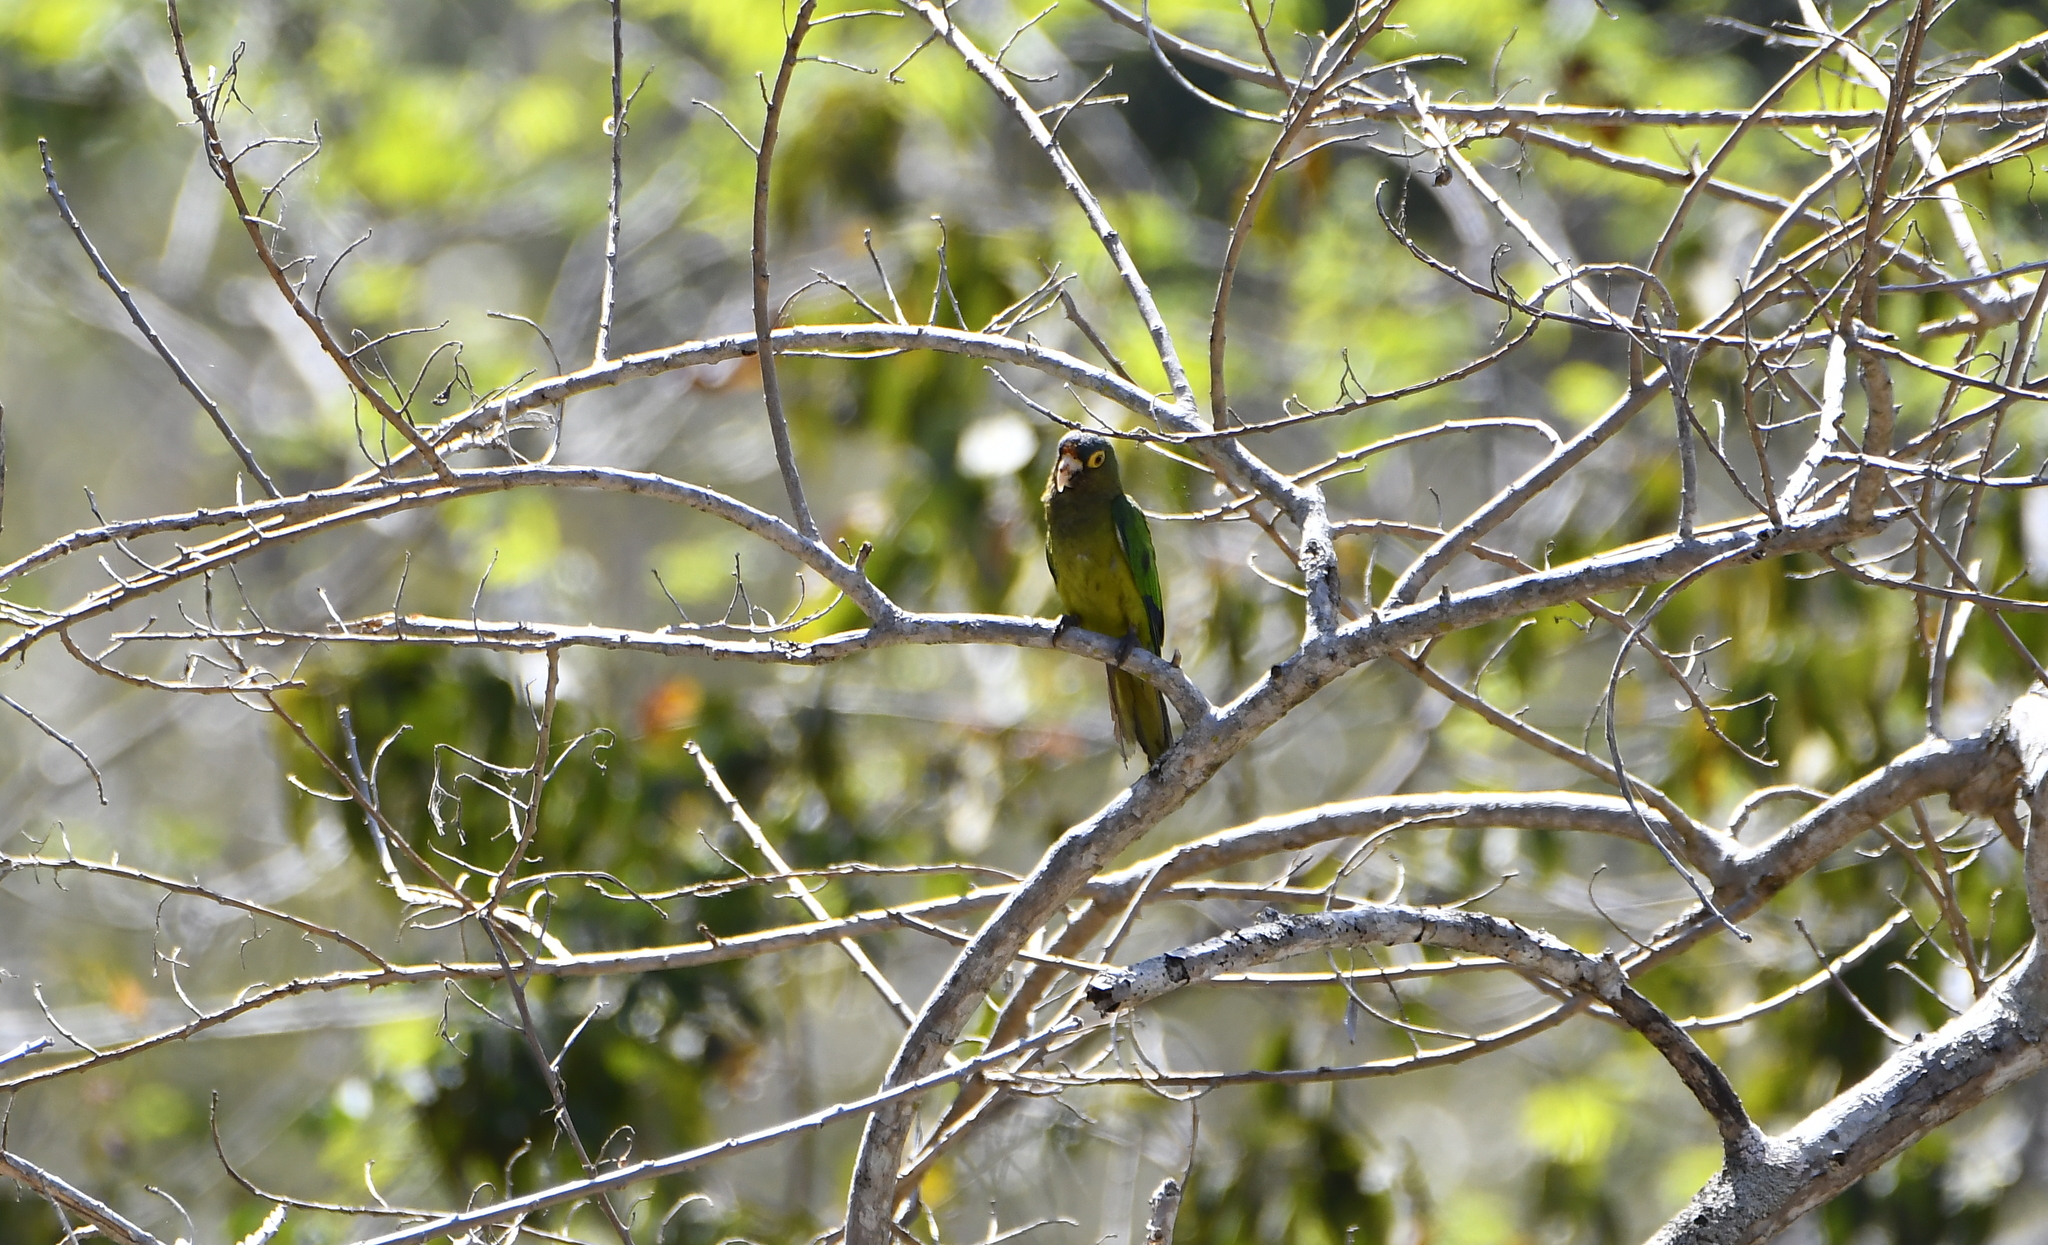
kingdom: Animalia
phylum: Chordata
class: Aves
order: Psittaciformes
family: Psittacidae
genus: Aratinga
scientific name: Aratinga canicularis
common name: Orange-fronted parakeet
